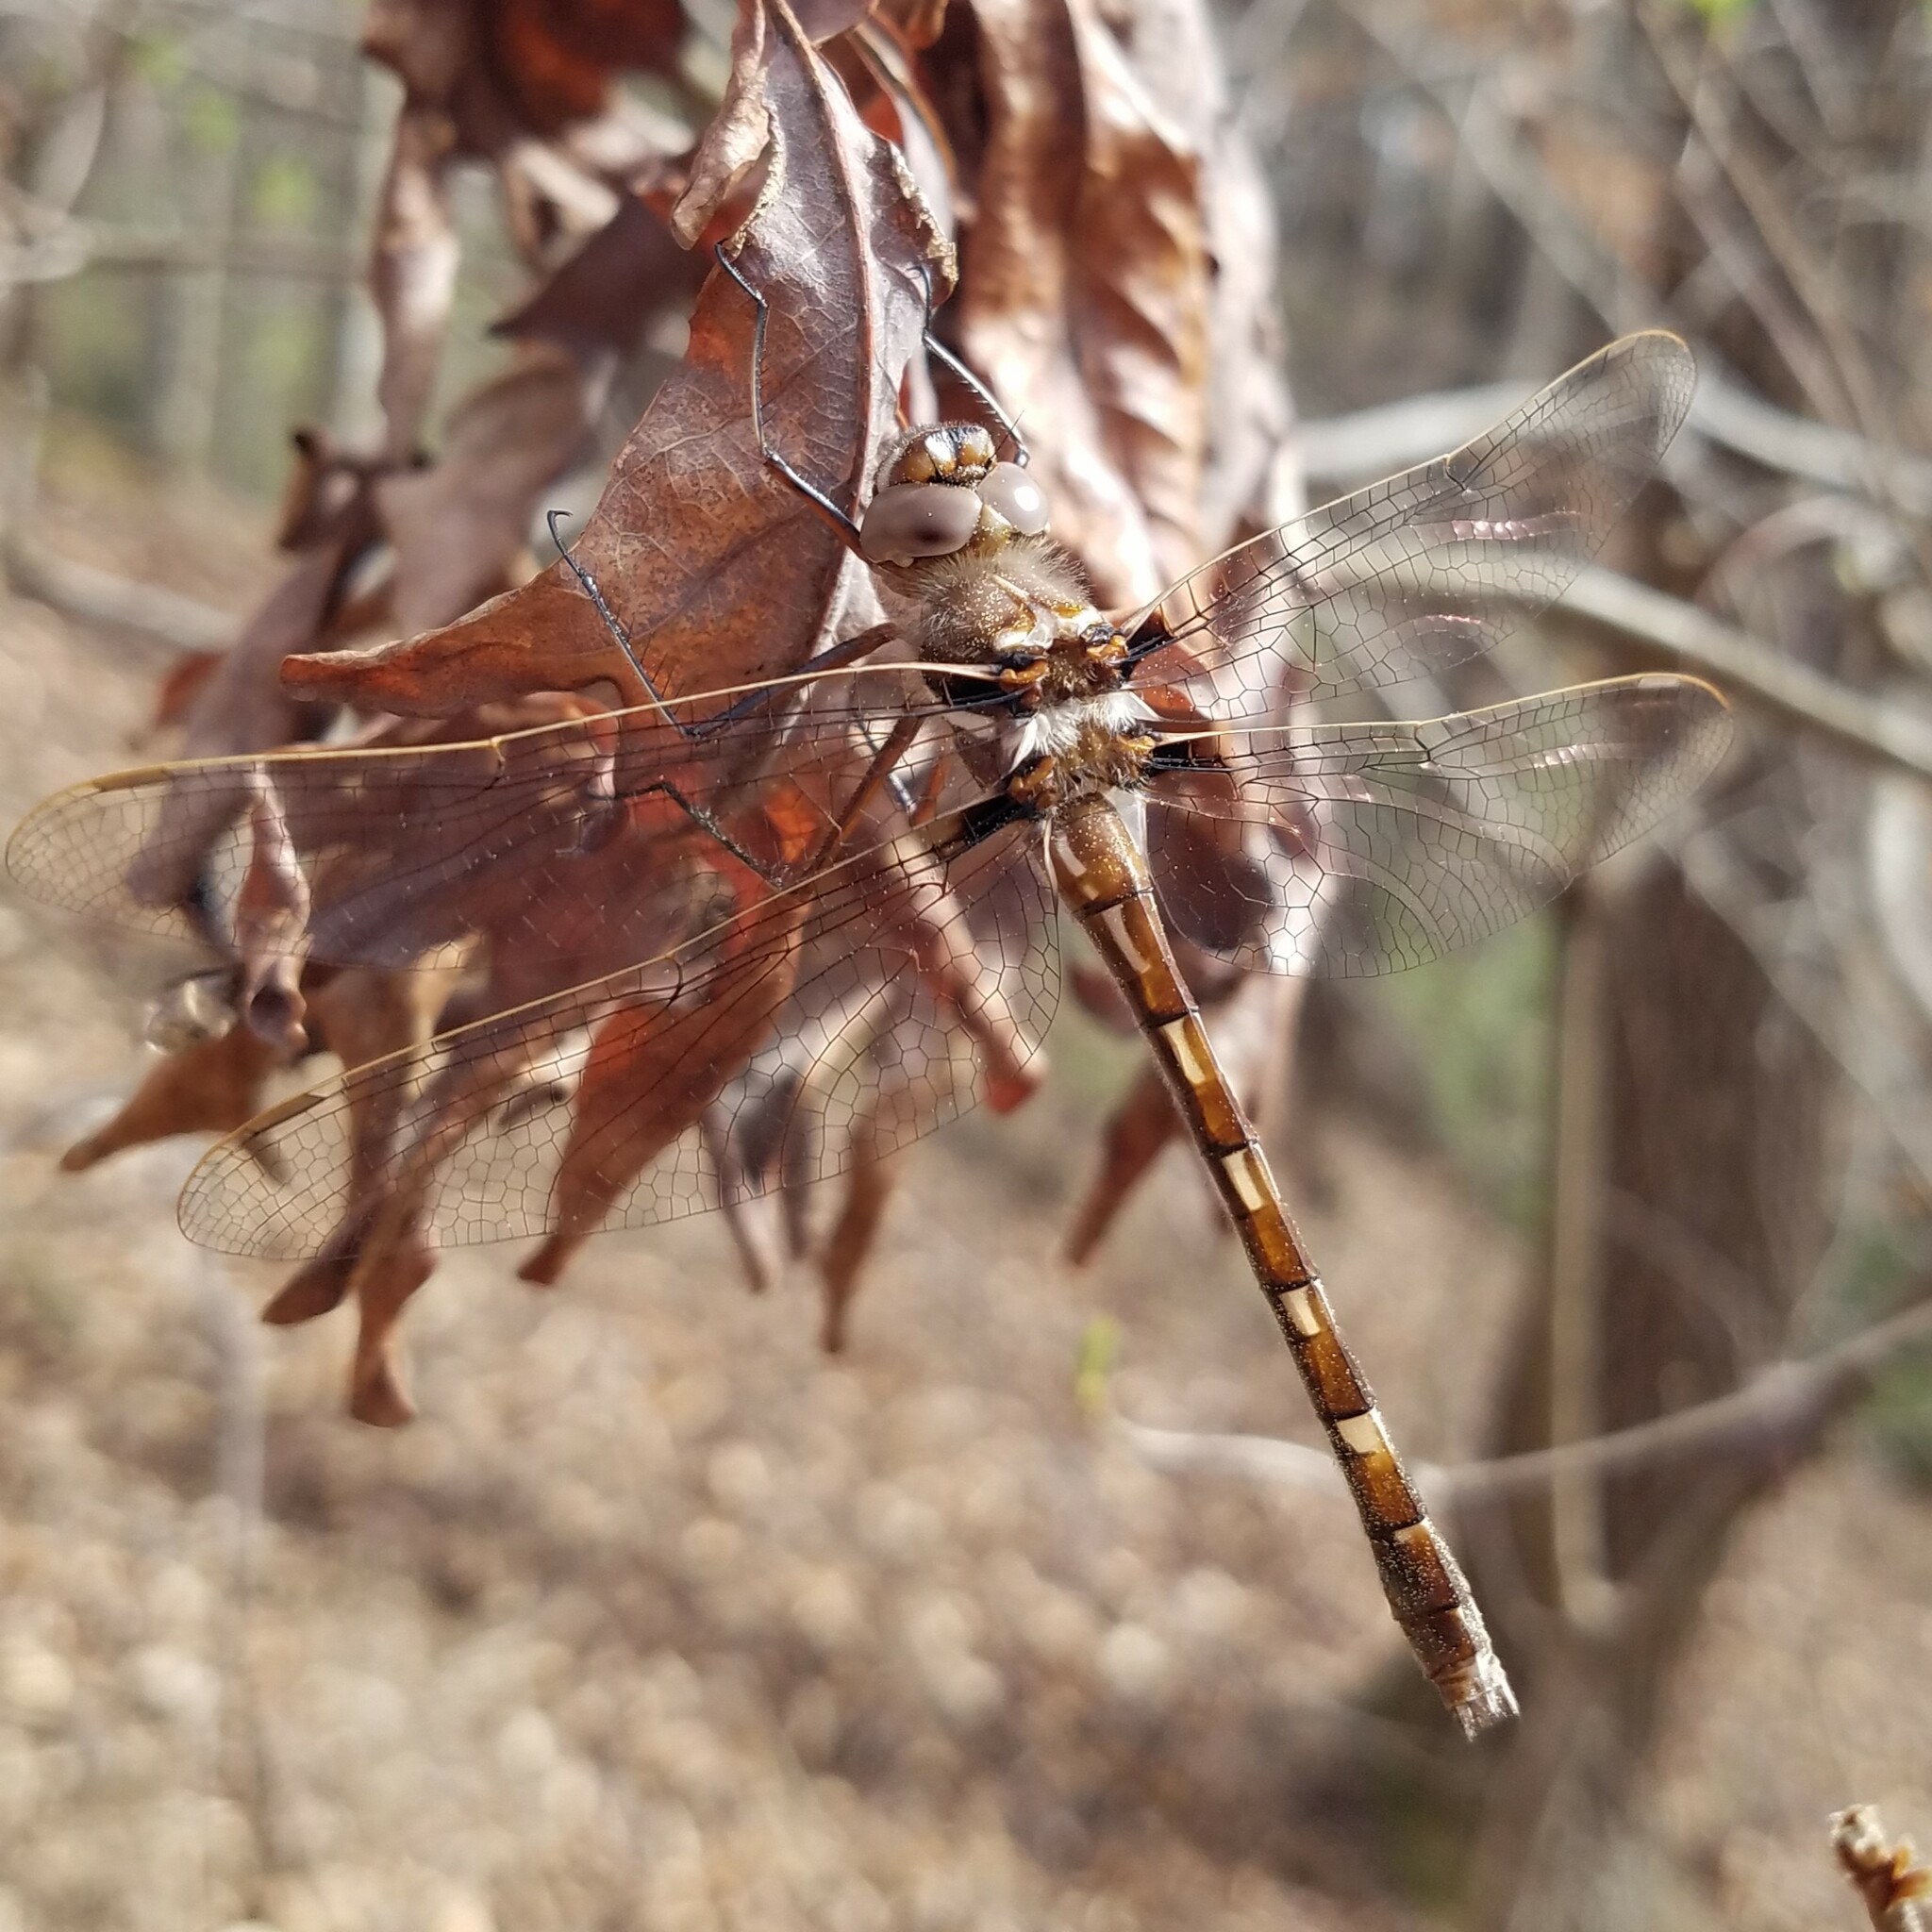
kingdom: Animalia
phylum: Arthropoda
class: Insecta
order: Odonata
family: Macromiidae
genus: Didymops
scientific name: Didymops transversa
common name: Stream cruiser
